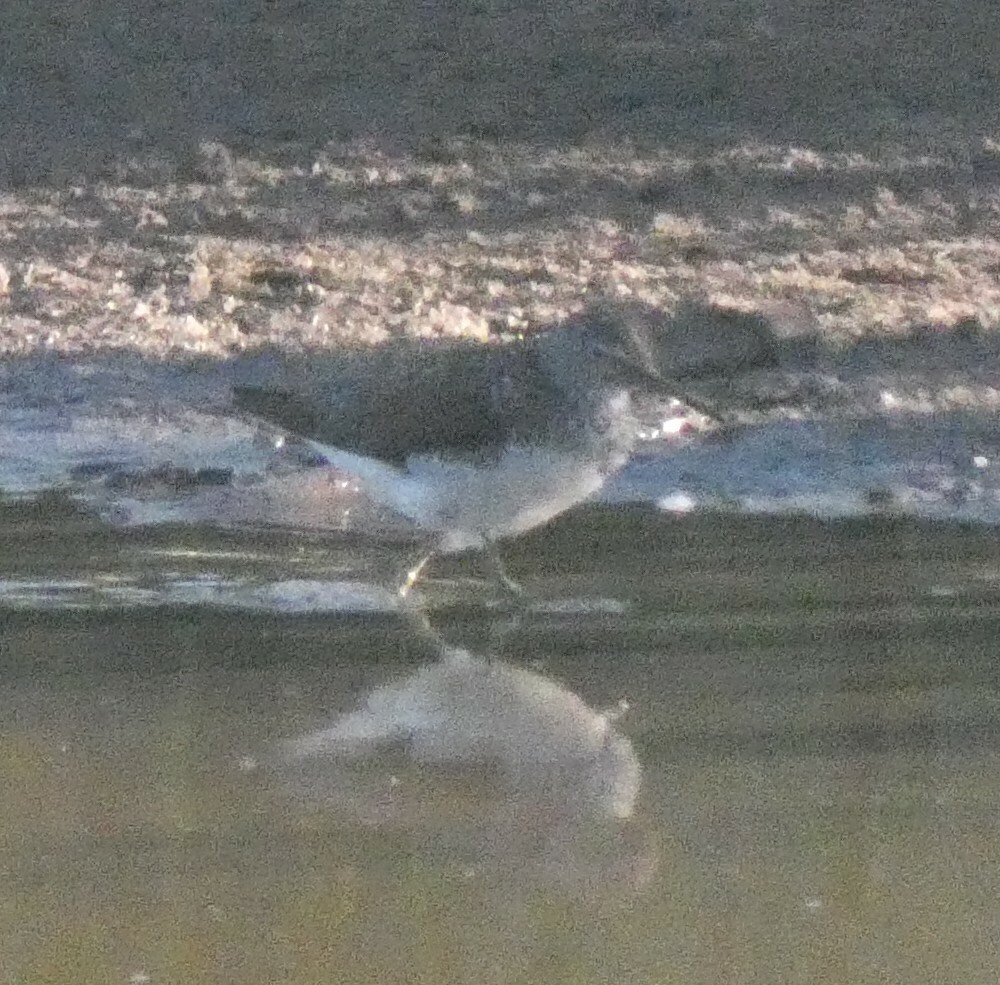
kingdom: Animalia
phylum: Chordata
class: Aves
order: Charadriiformes
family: Scolopacidae
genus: Tringa
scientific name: Tringa ochropus
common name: Green sandpiper
